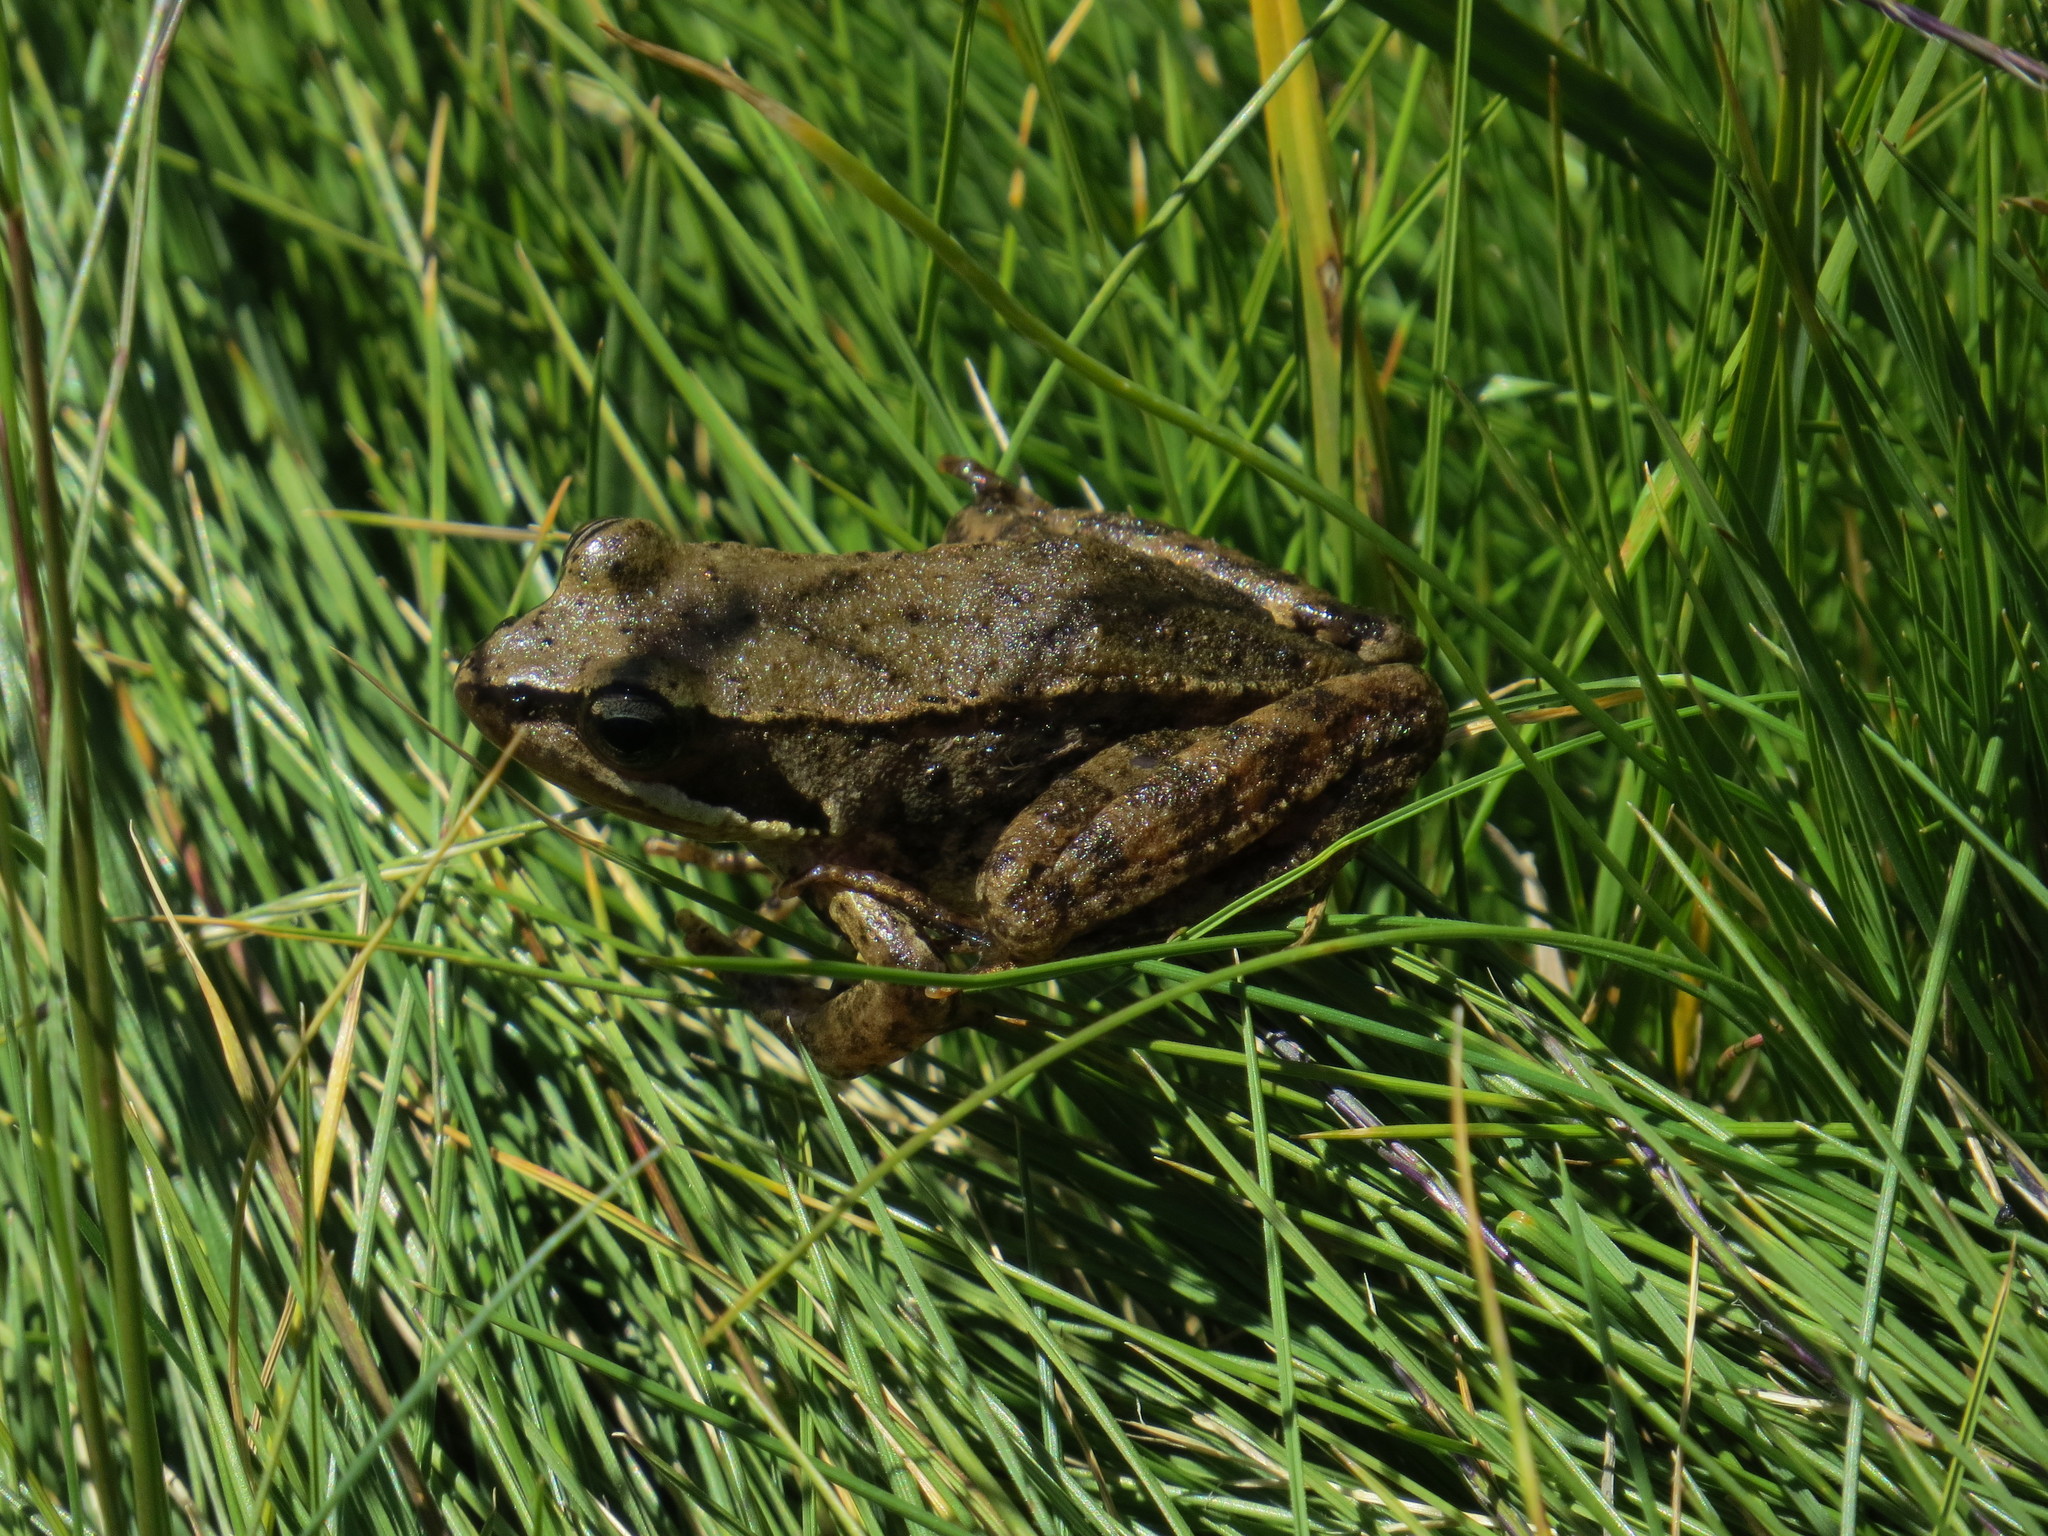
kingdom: Animalia
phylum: Chordata
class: Amphibia
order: Anura
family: Ranidae
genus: Rana
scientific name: Rana iberica
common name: Iberian frog
